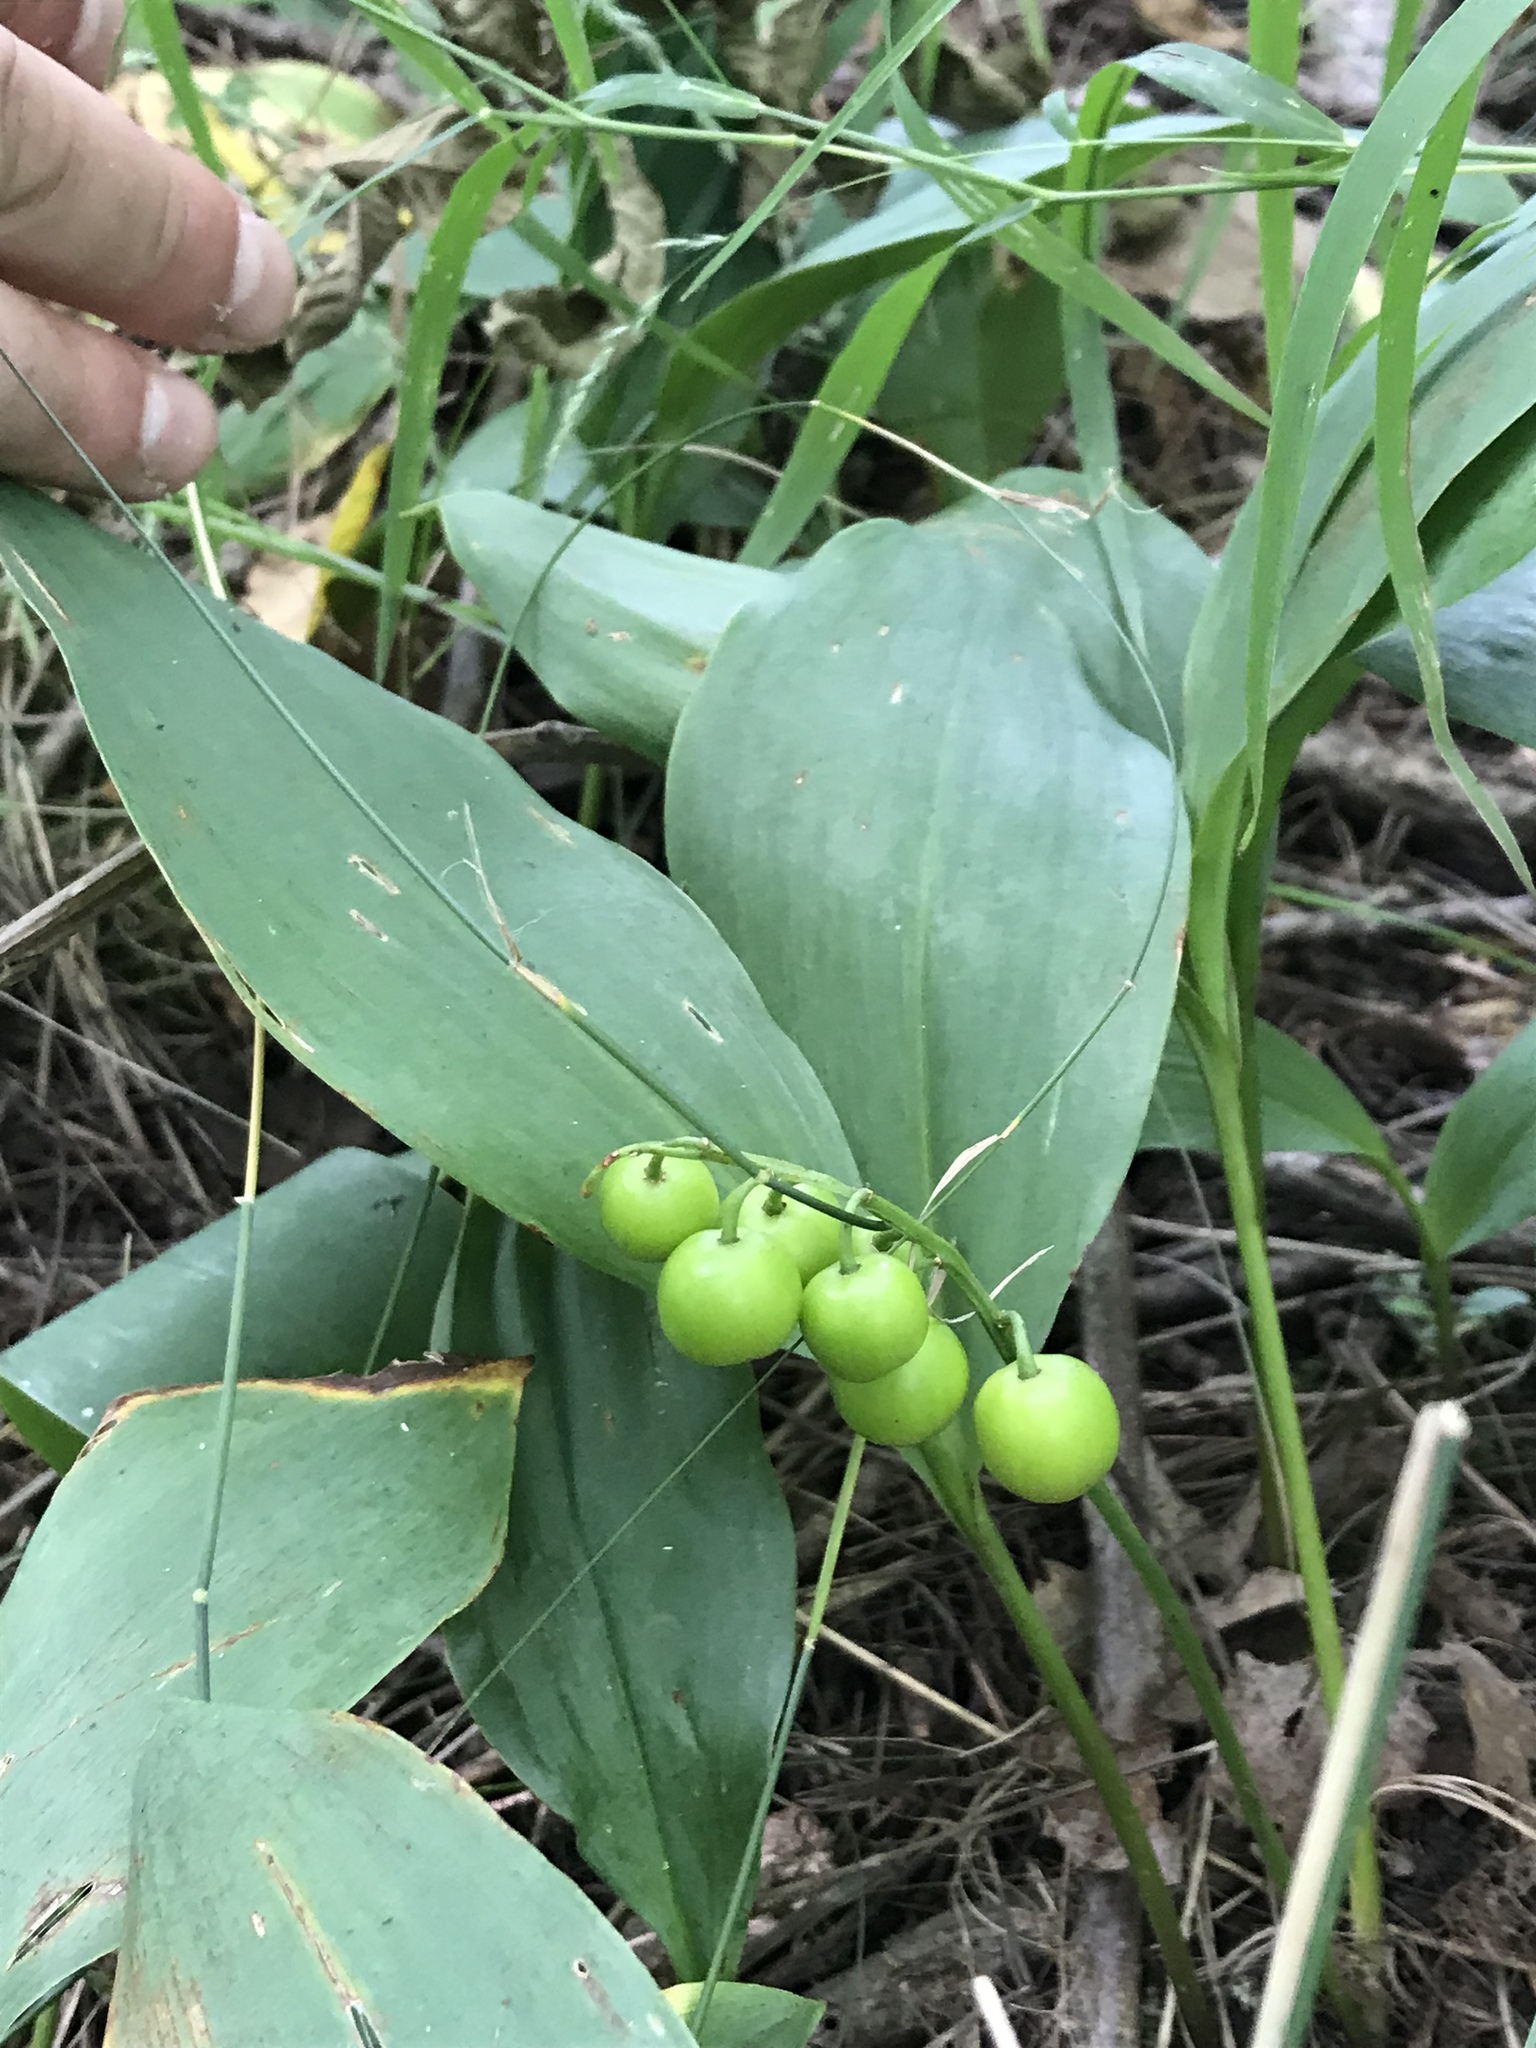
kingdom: Plantae
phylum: Tracheophyta
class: Liliopsida
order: Asparagales
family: Asparagaceae
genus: Convallaria
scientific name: Convallaria majalis
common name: Lily-of-the-valley
